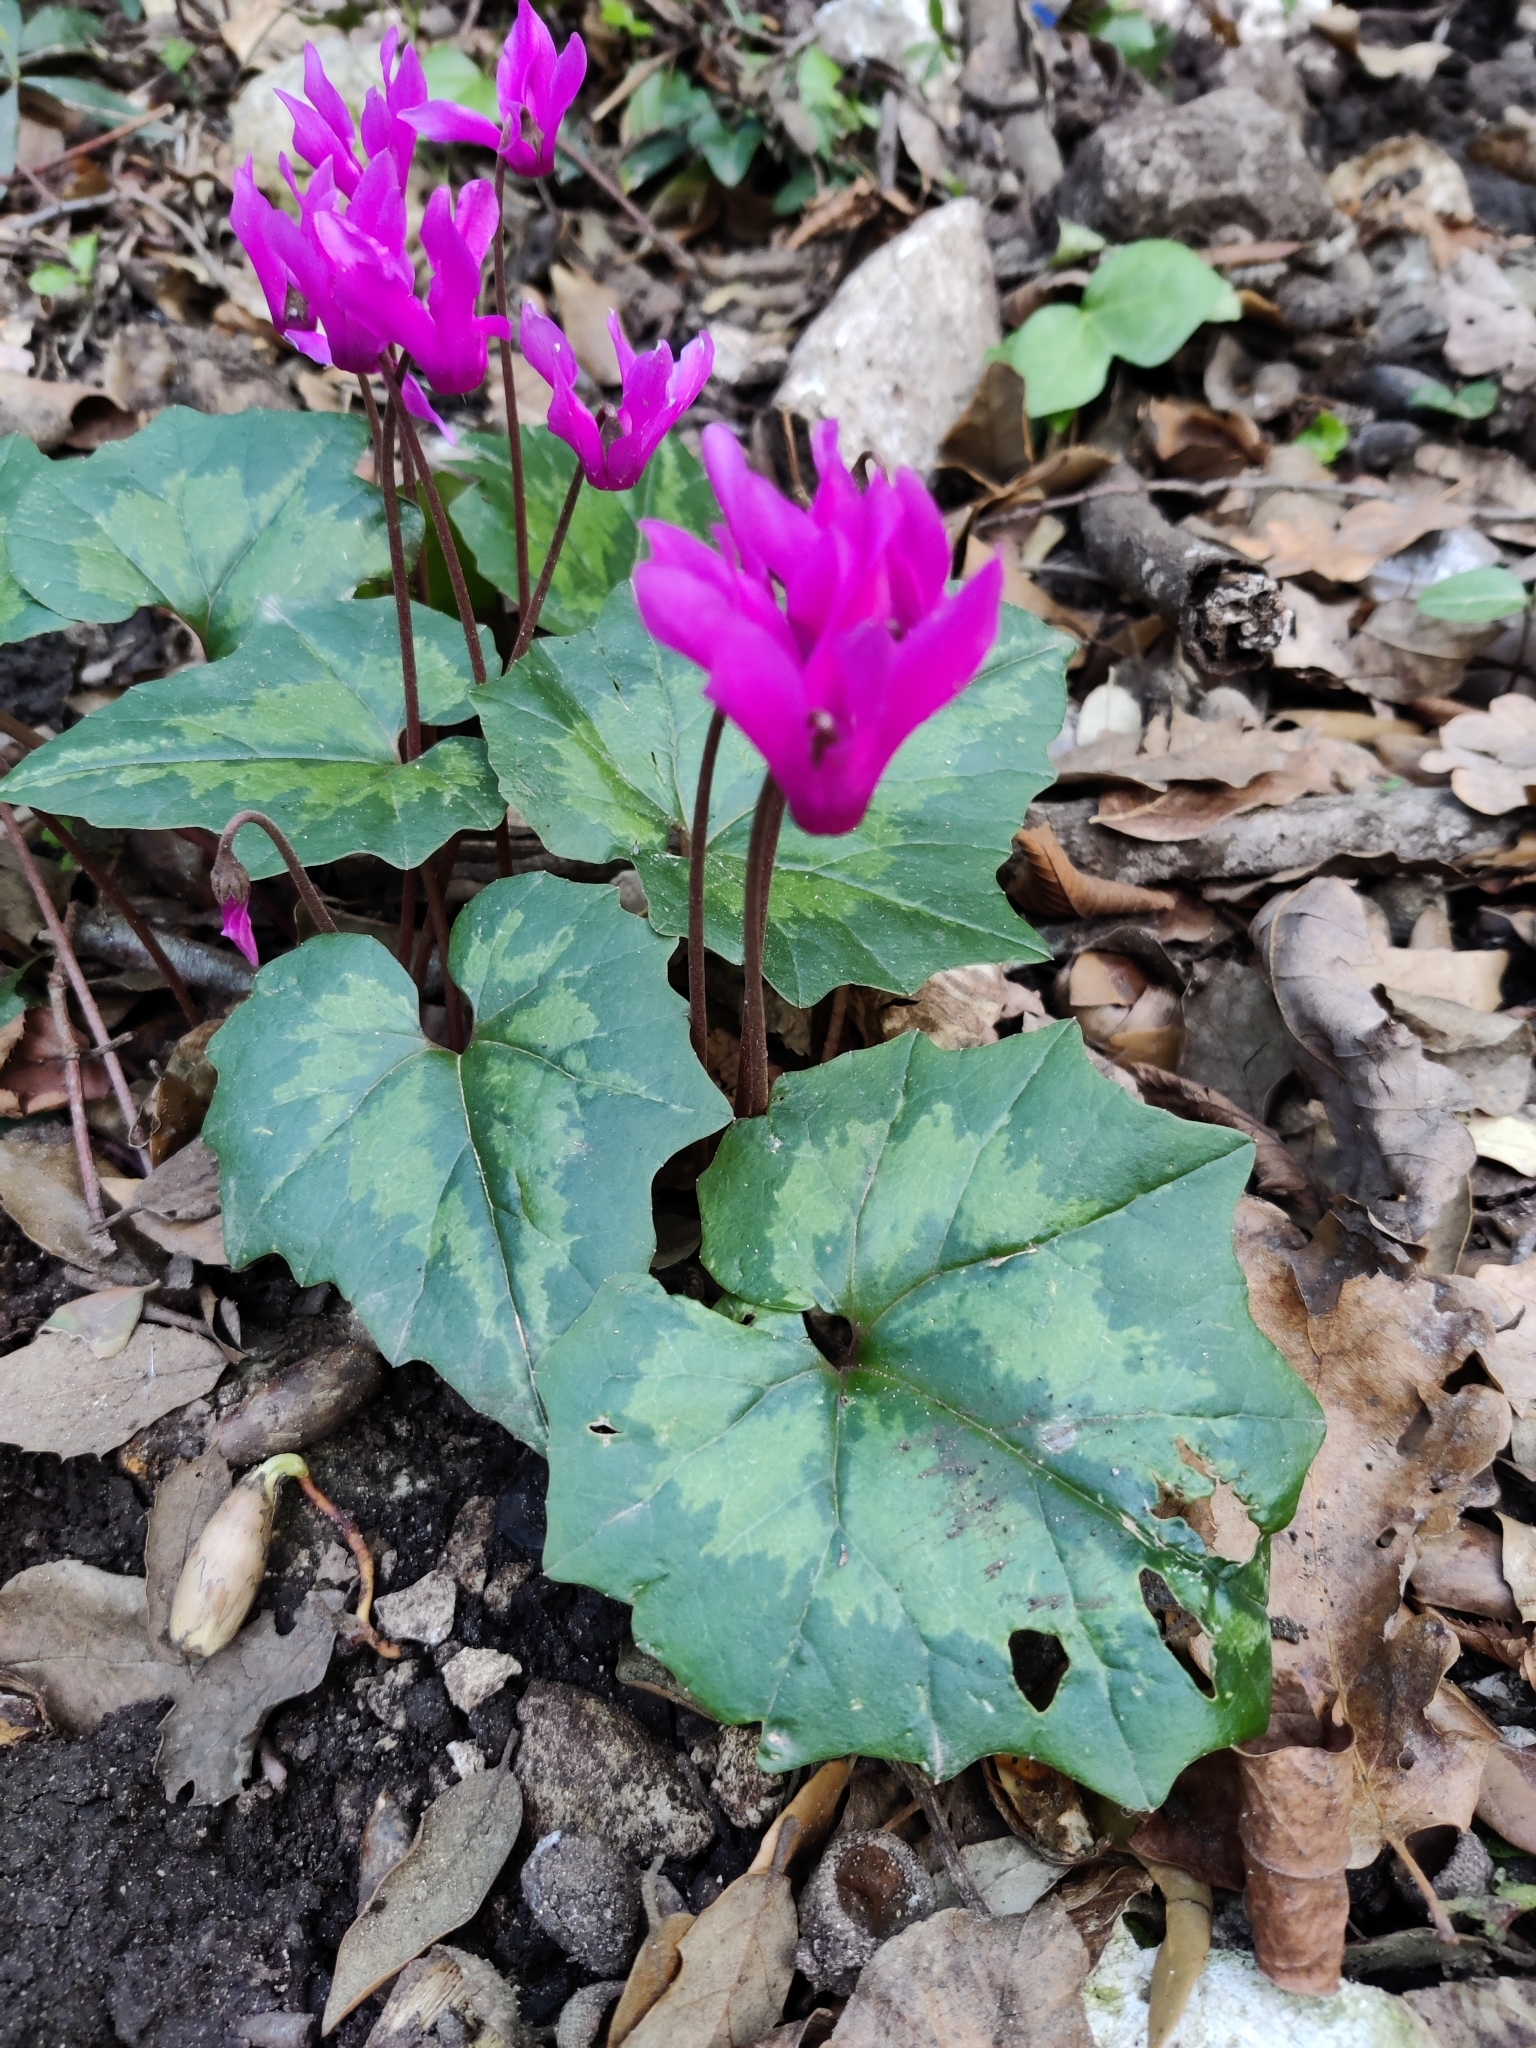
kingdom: Plantae
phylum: Tracheophyta
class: Magnoliopsida
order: Ericales
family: Primulaceae
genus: Cyclamen
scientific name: Cyclamen repandum
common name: Spring sowbread
